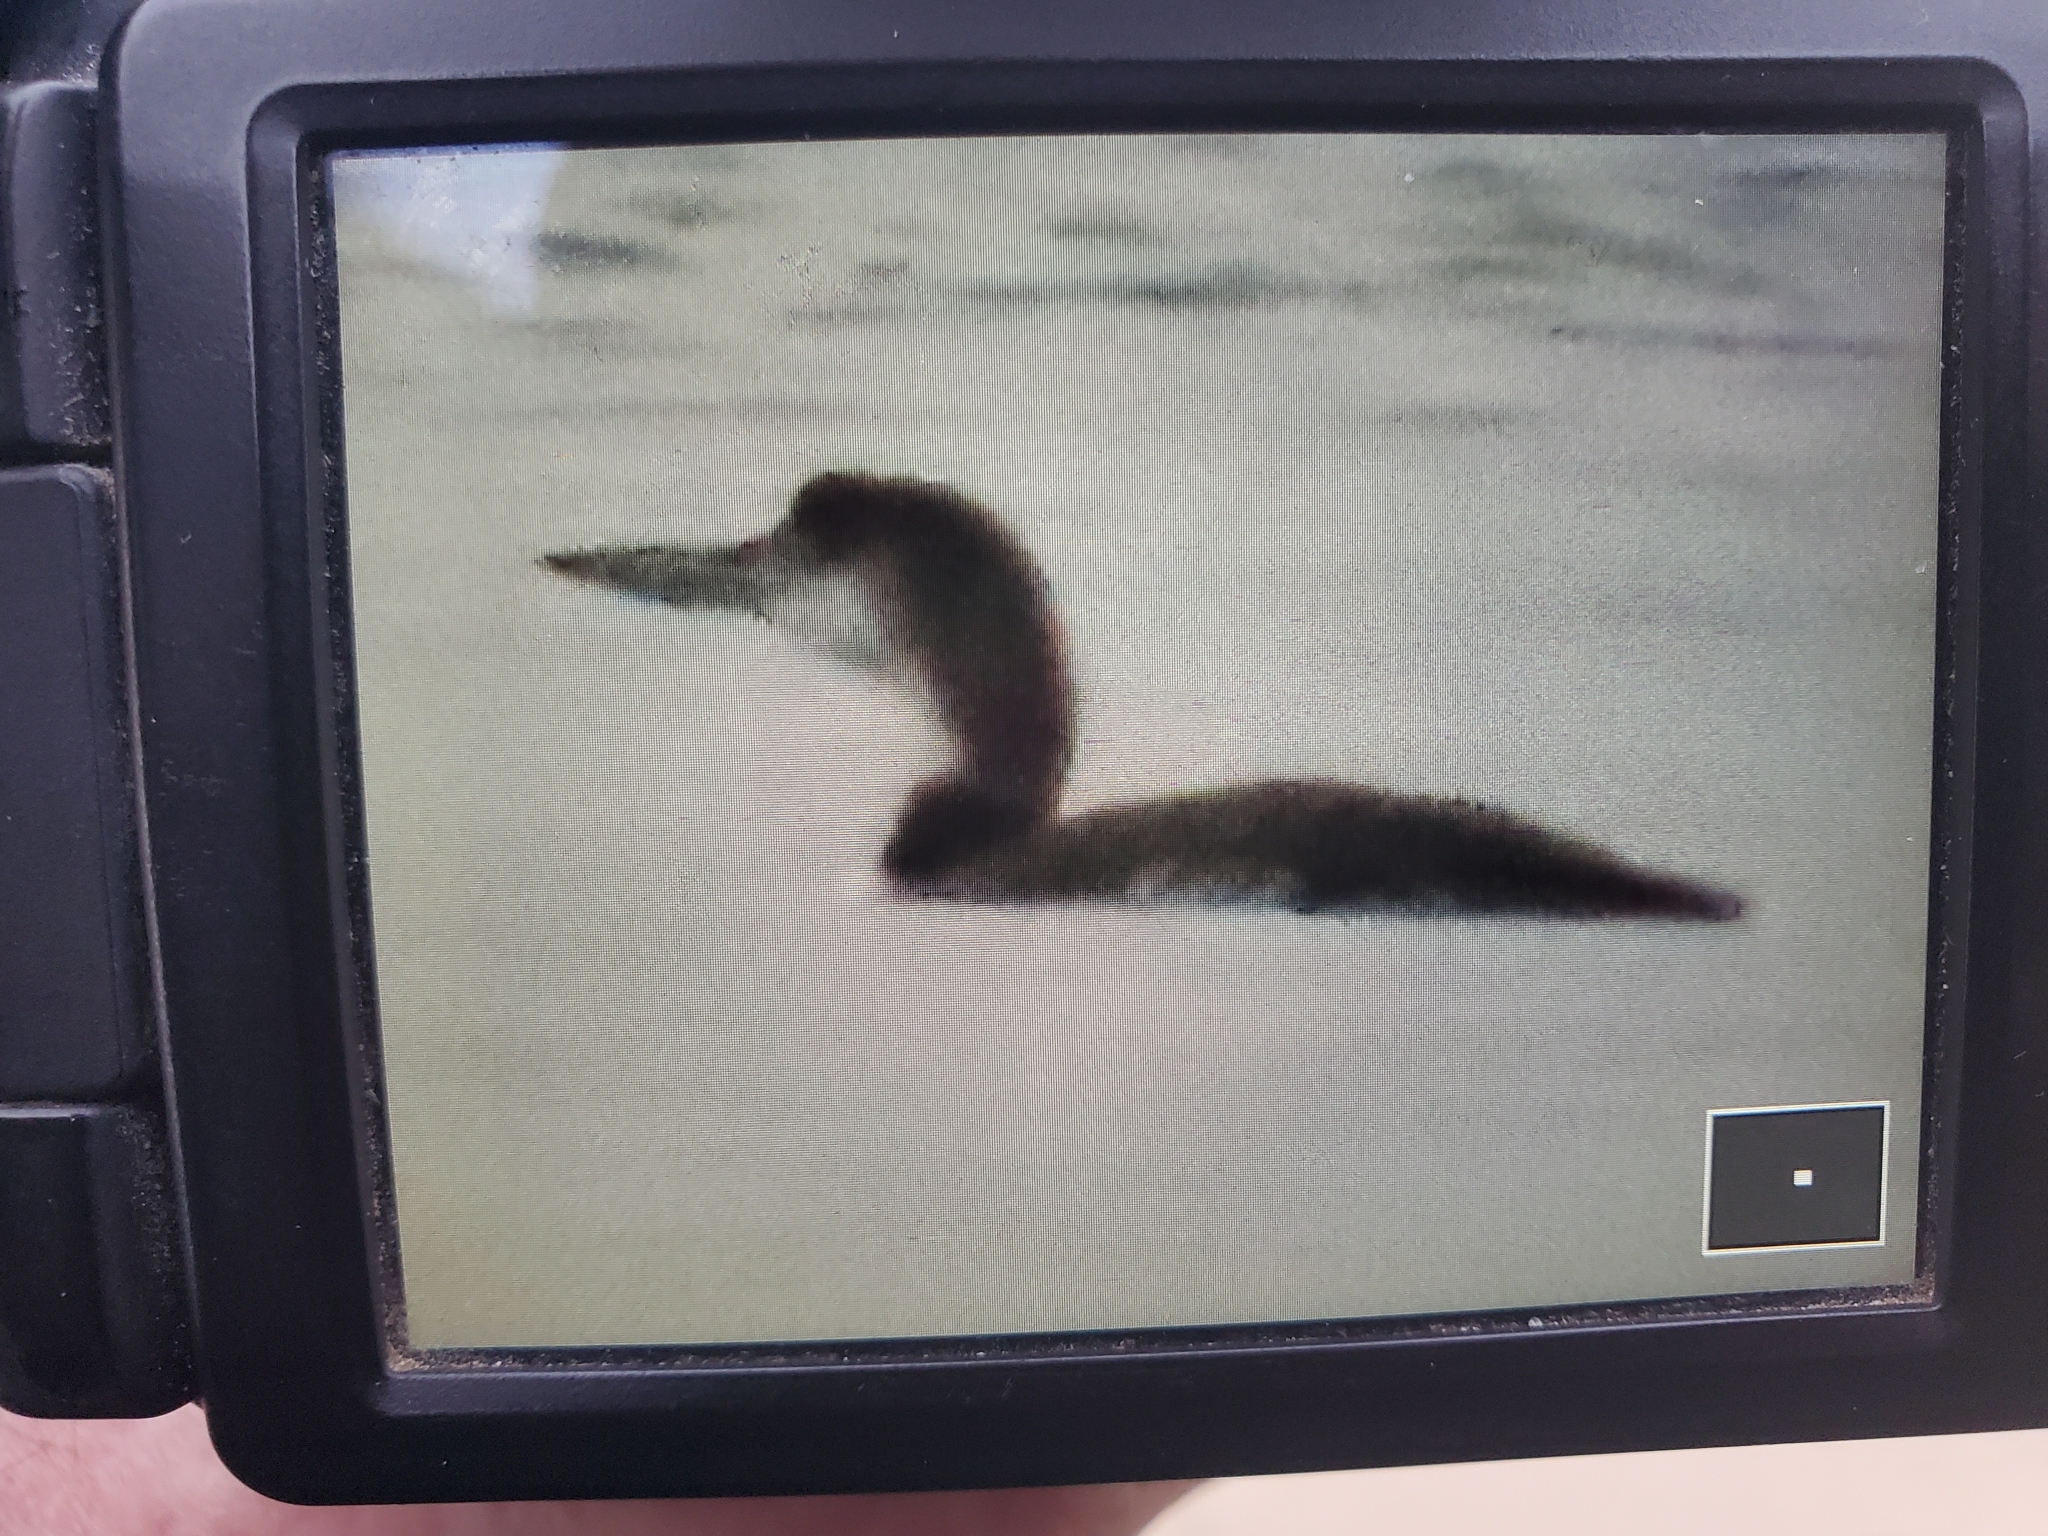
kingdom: Animalia
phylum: Chordata
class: Aves
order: Gaviiformes
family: Gaviidae
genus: Gavia
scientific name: Gavia immer
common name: Common loon
